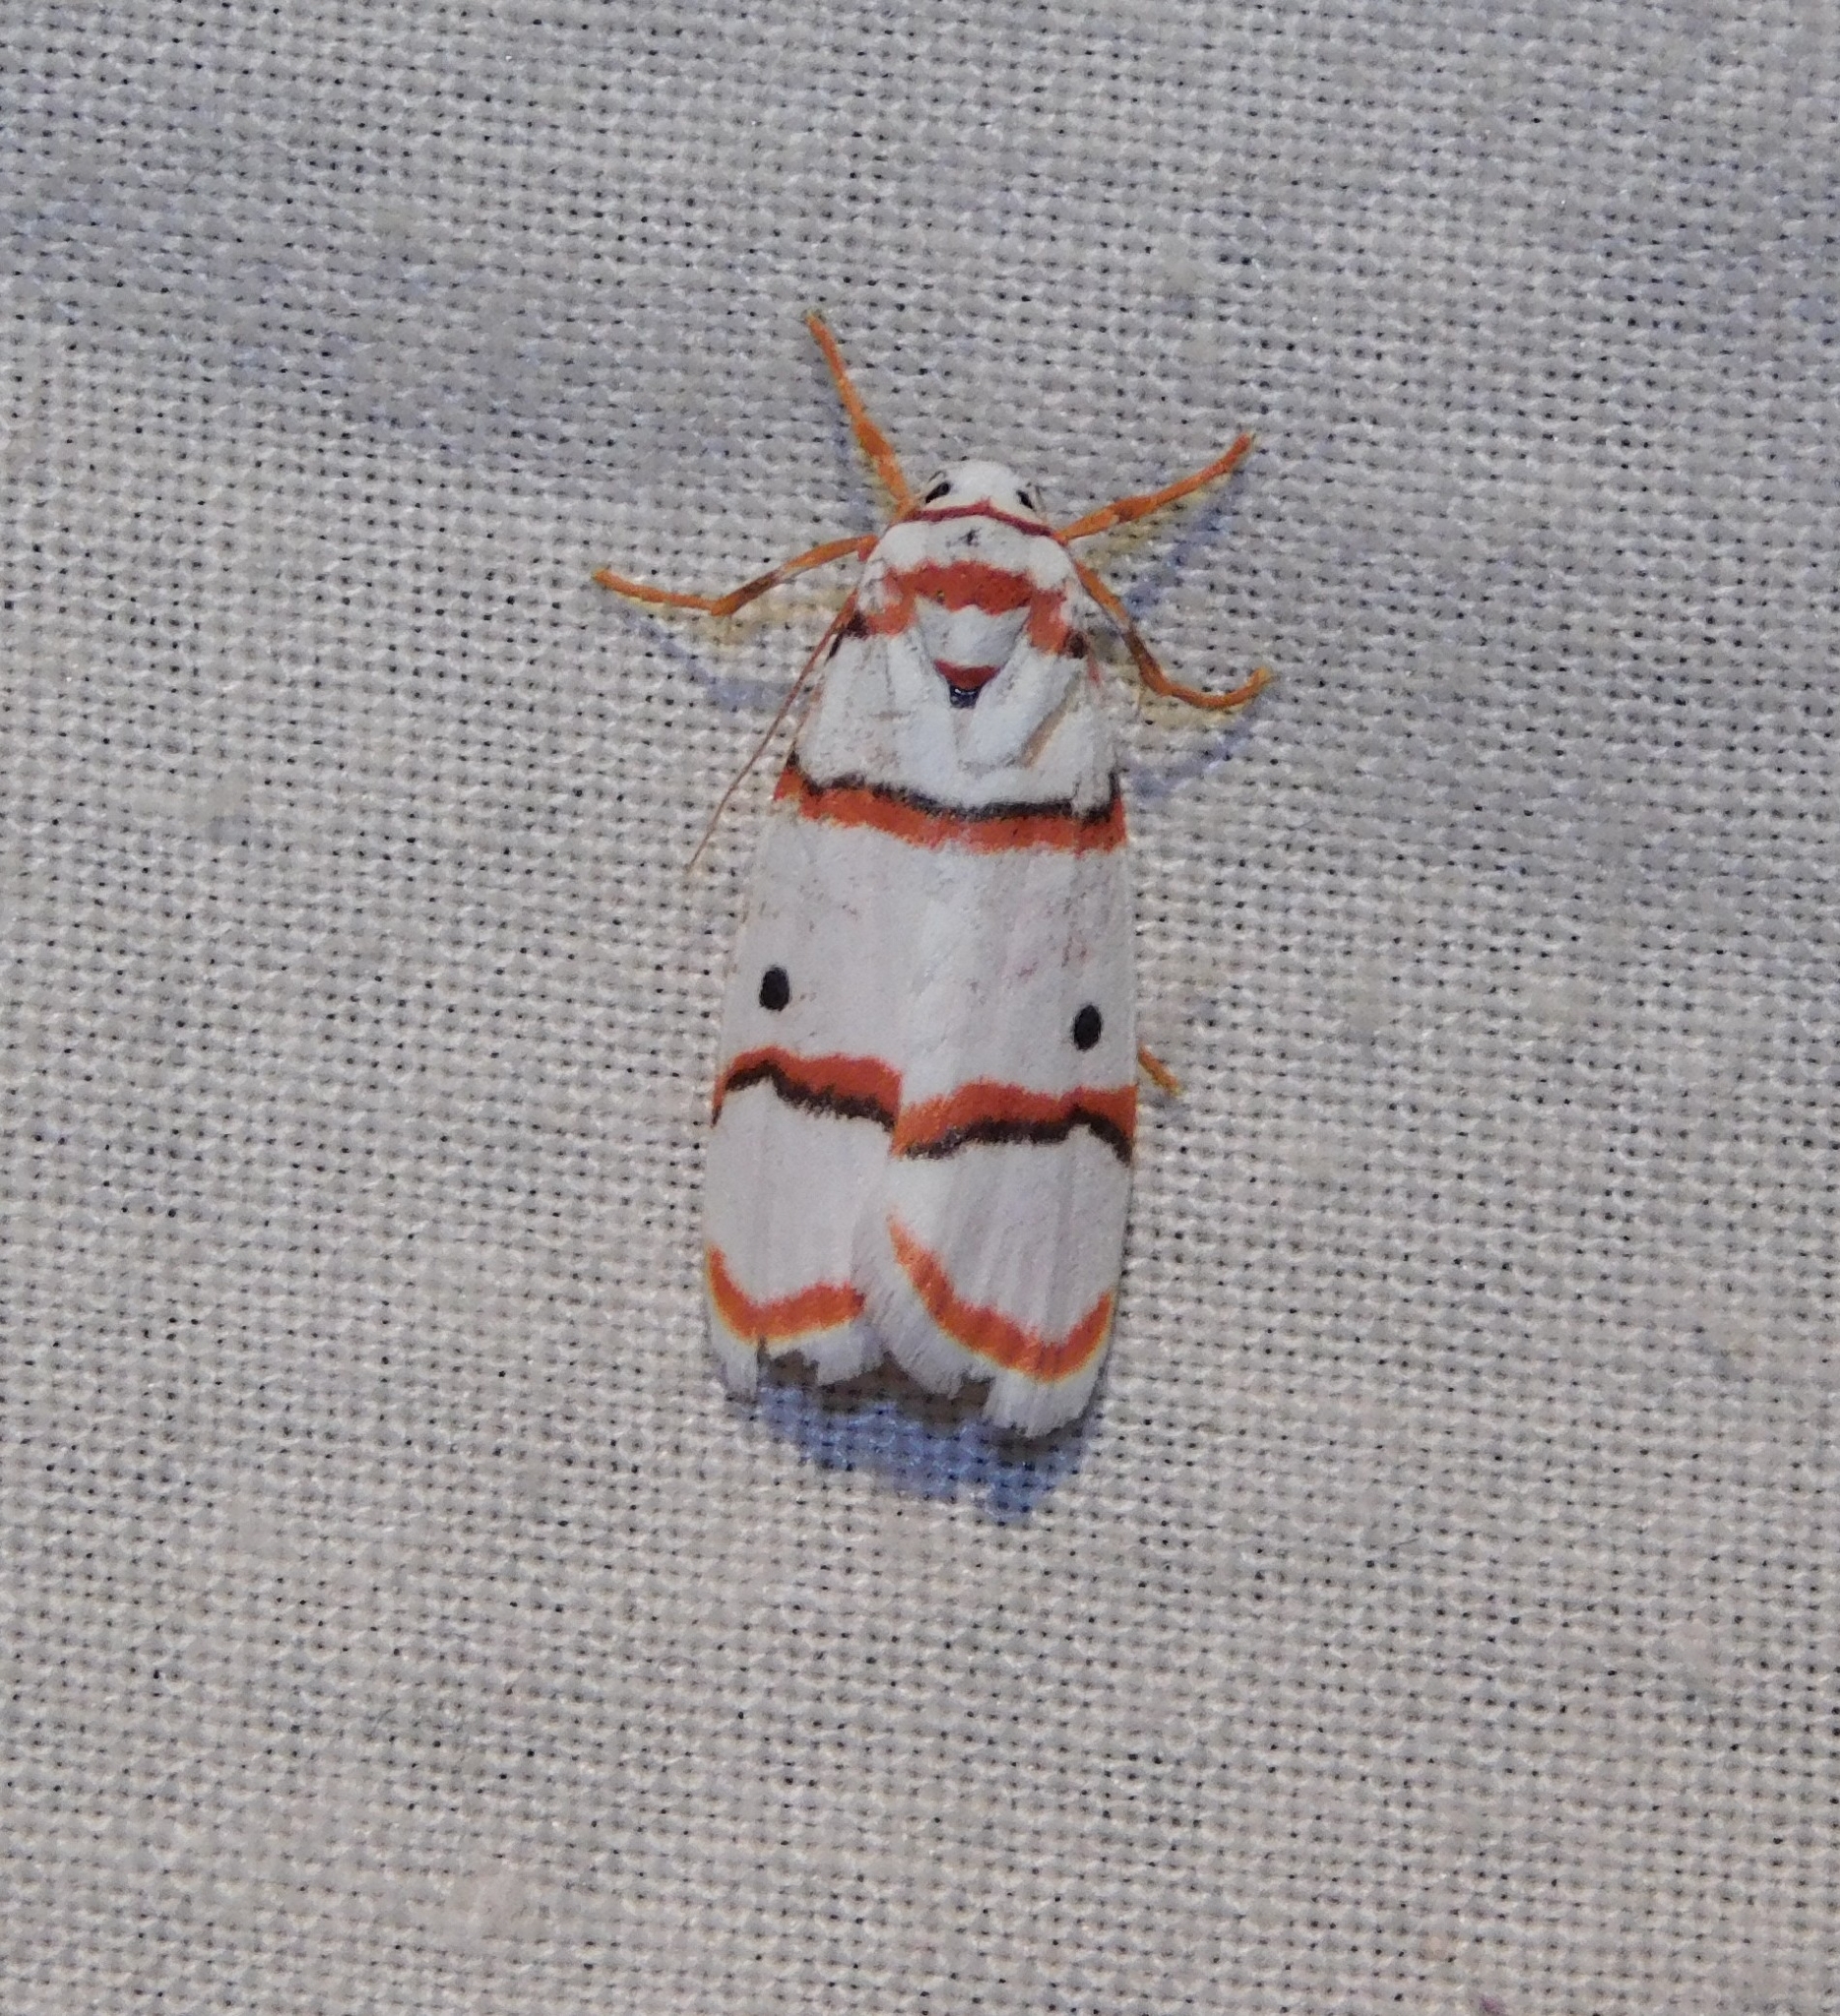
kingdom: Animalia
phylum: Arthropoda
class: Insecta
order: Lepidoptera
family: Erebidae
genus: Cyana
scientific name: Cyana peregrina
